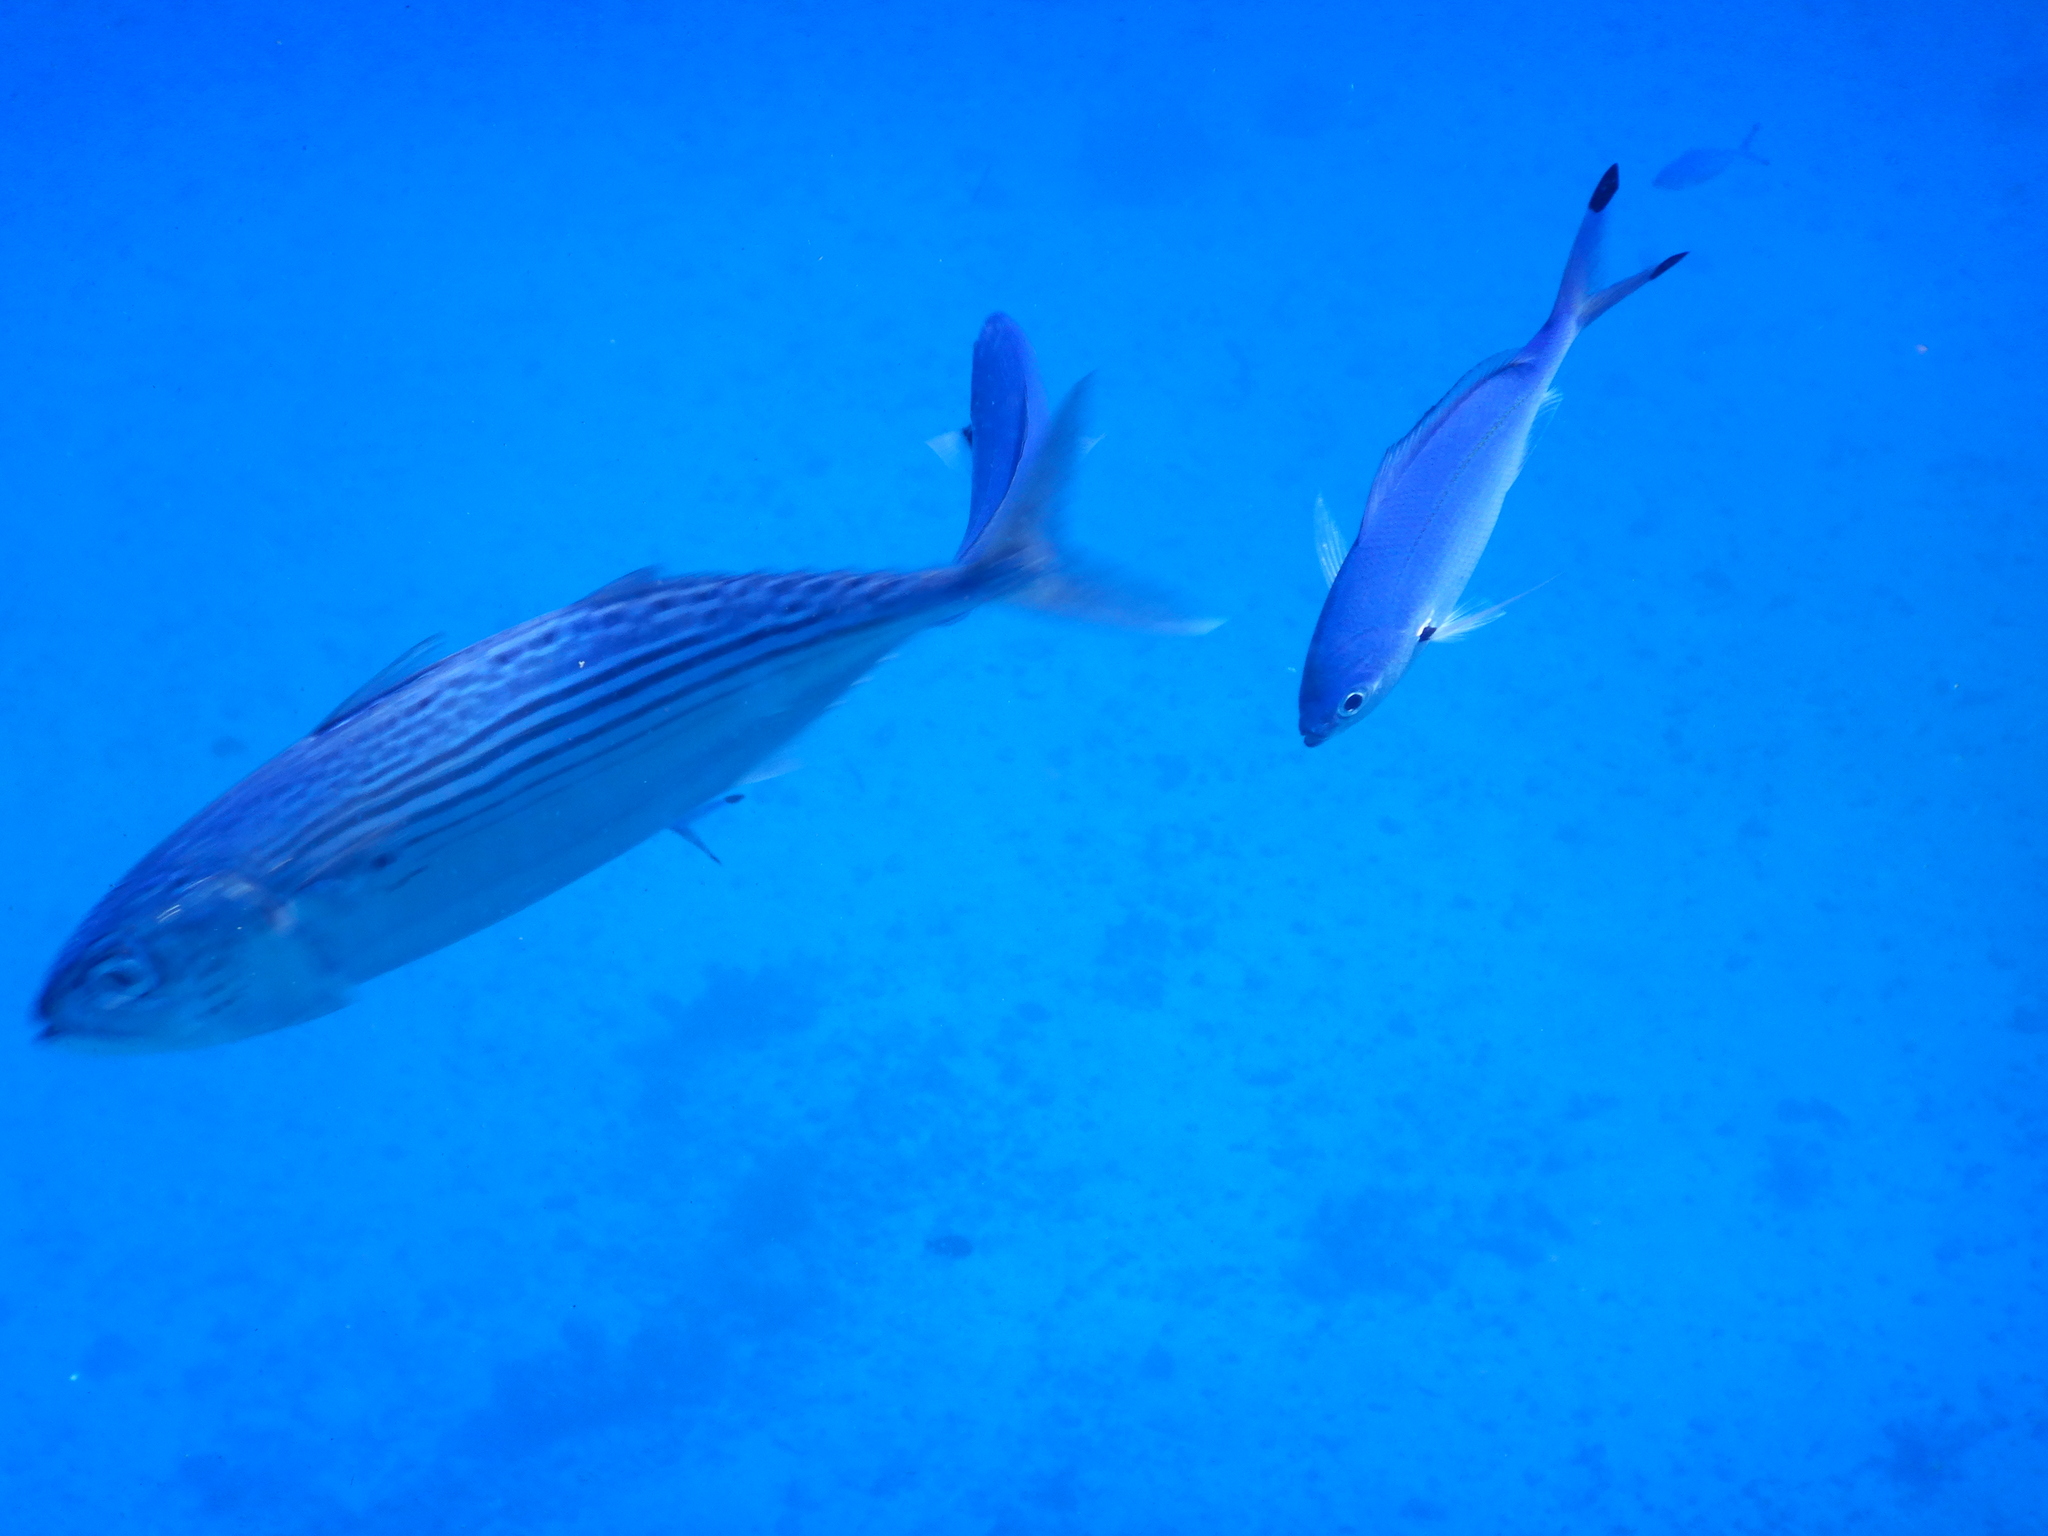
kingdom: Animalia
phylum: Chordata
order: Perciformes
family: Scombridae
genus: Rastrelliger
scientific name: Rastrelliger kanagurta
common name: Indian mackerel
